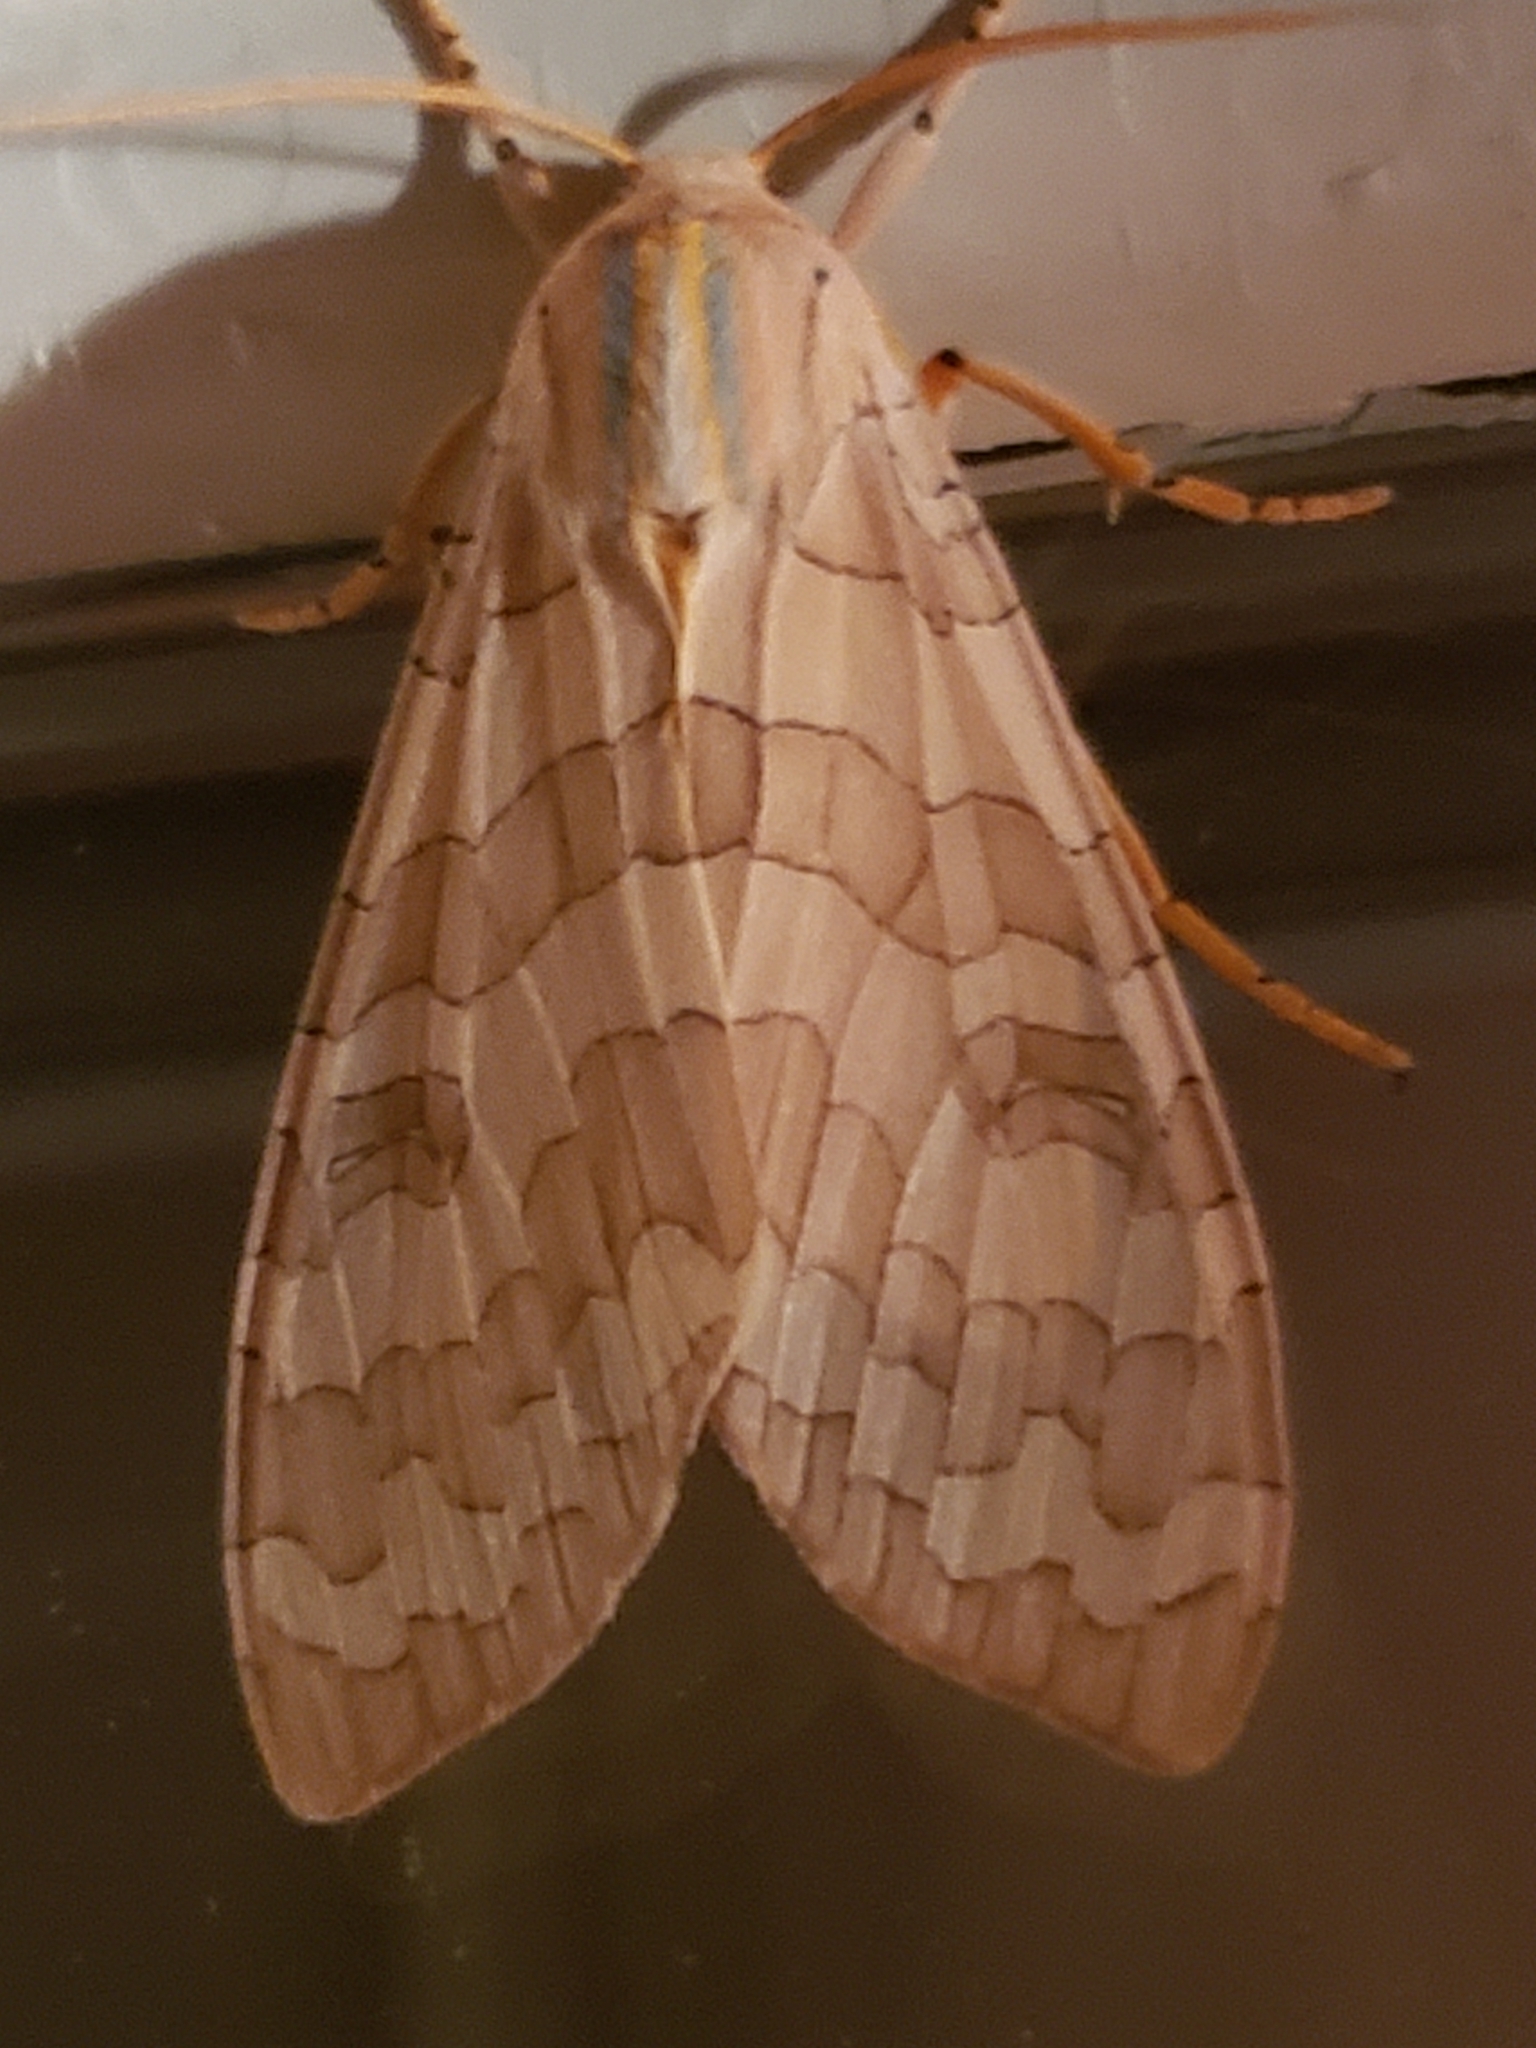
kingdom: Animalia
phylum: Arthropoda
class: Insecta
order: Lepidoptera
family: Erebidae
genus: Halysidota
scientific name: Halysidota
